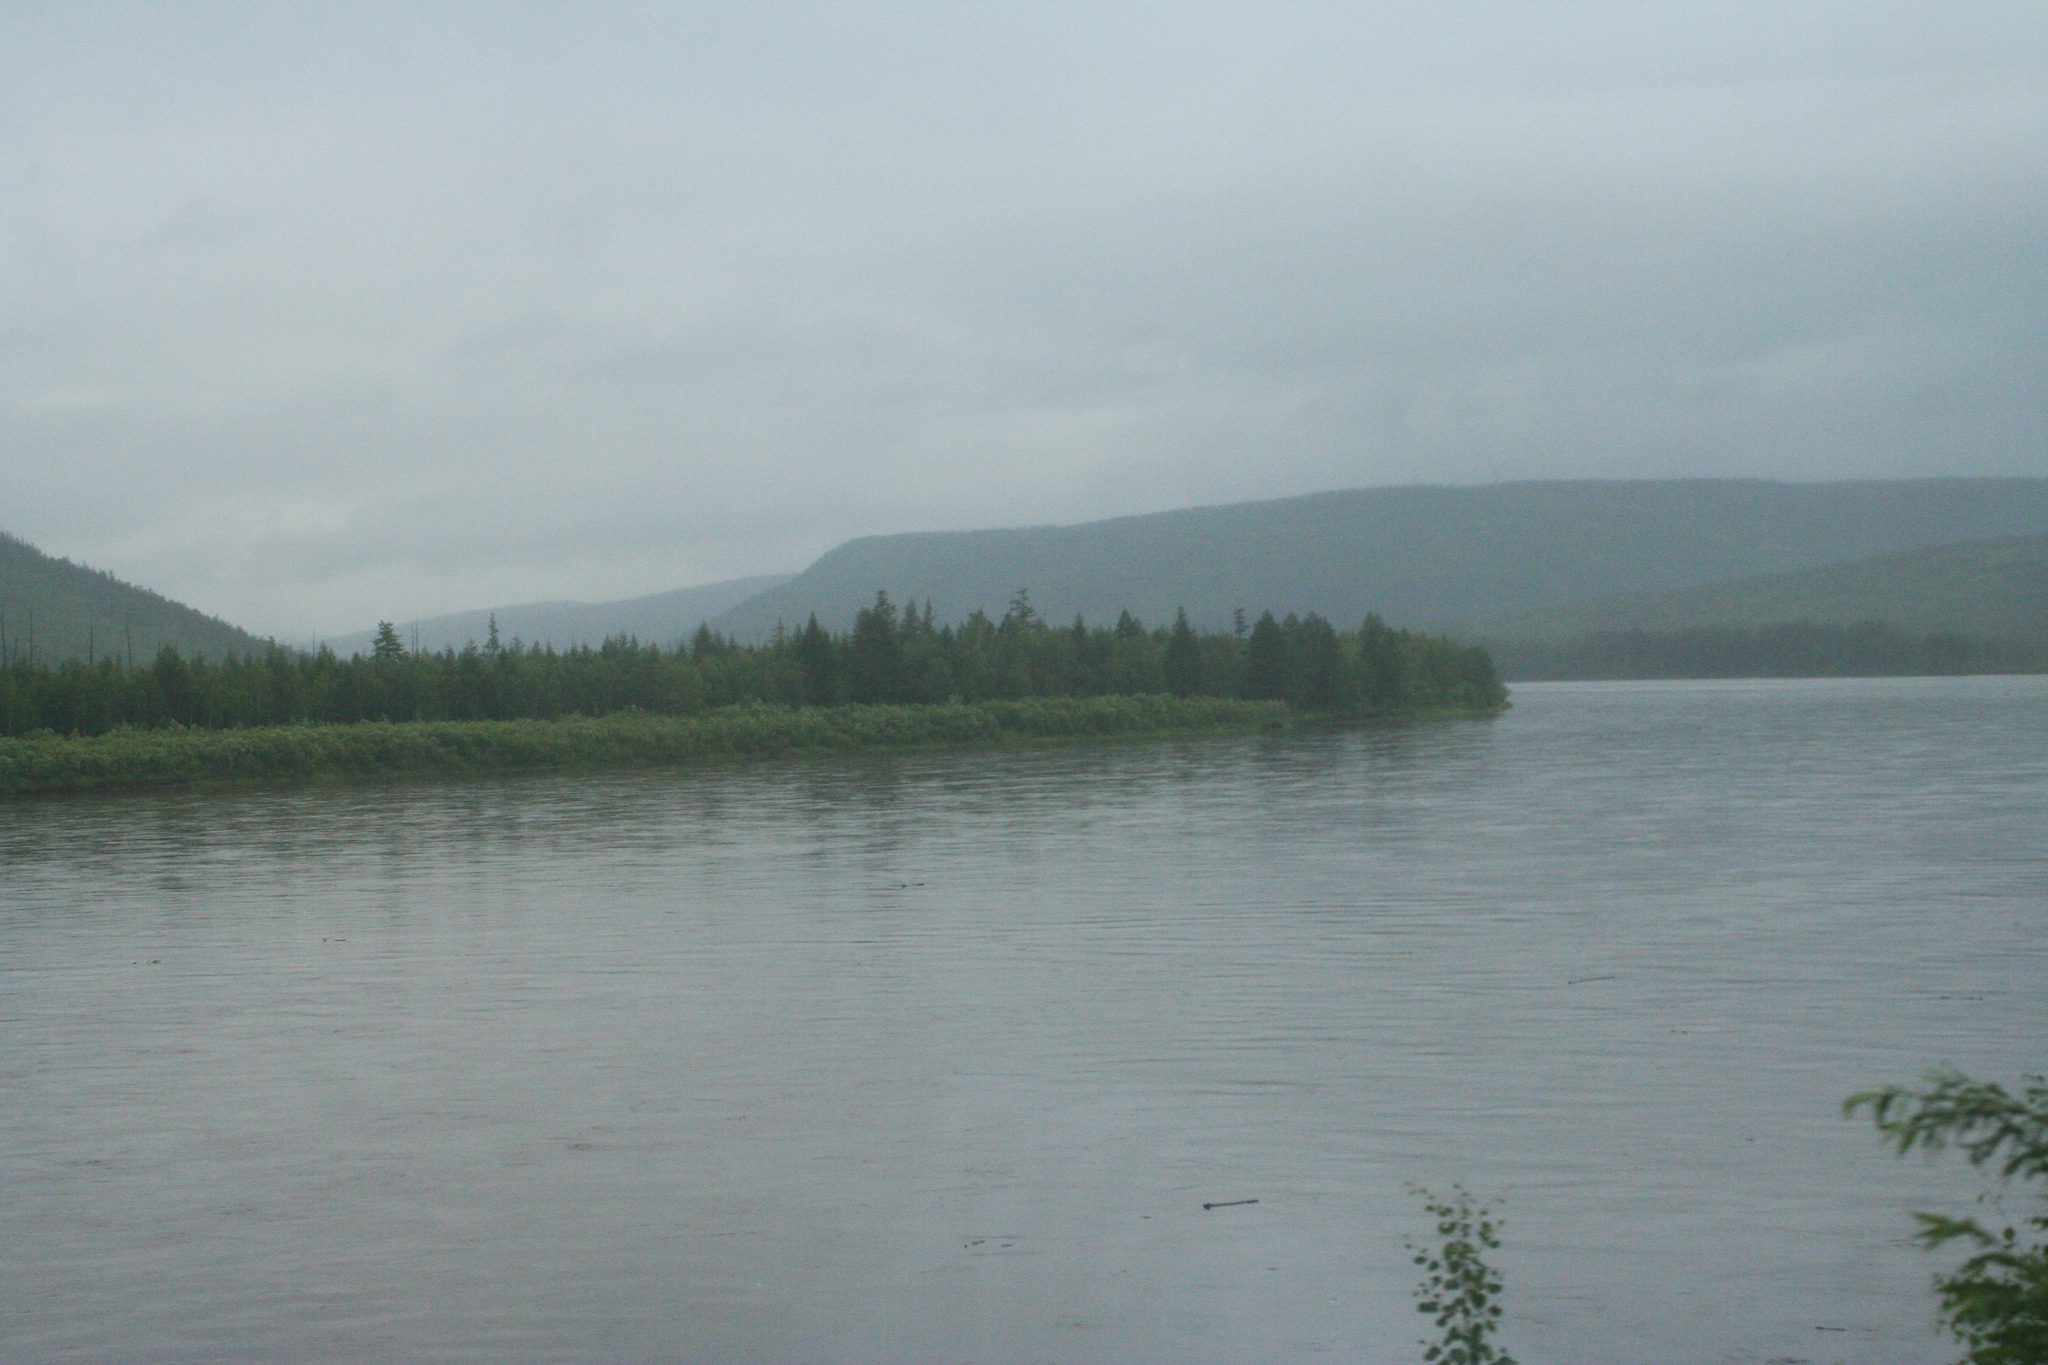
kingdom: Plantae
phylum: Tracheophyta
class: Pinopsida
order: Pinales
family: Pinaceae
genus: Larix
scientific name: Larix gmelinii
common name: Dahurian larch
